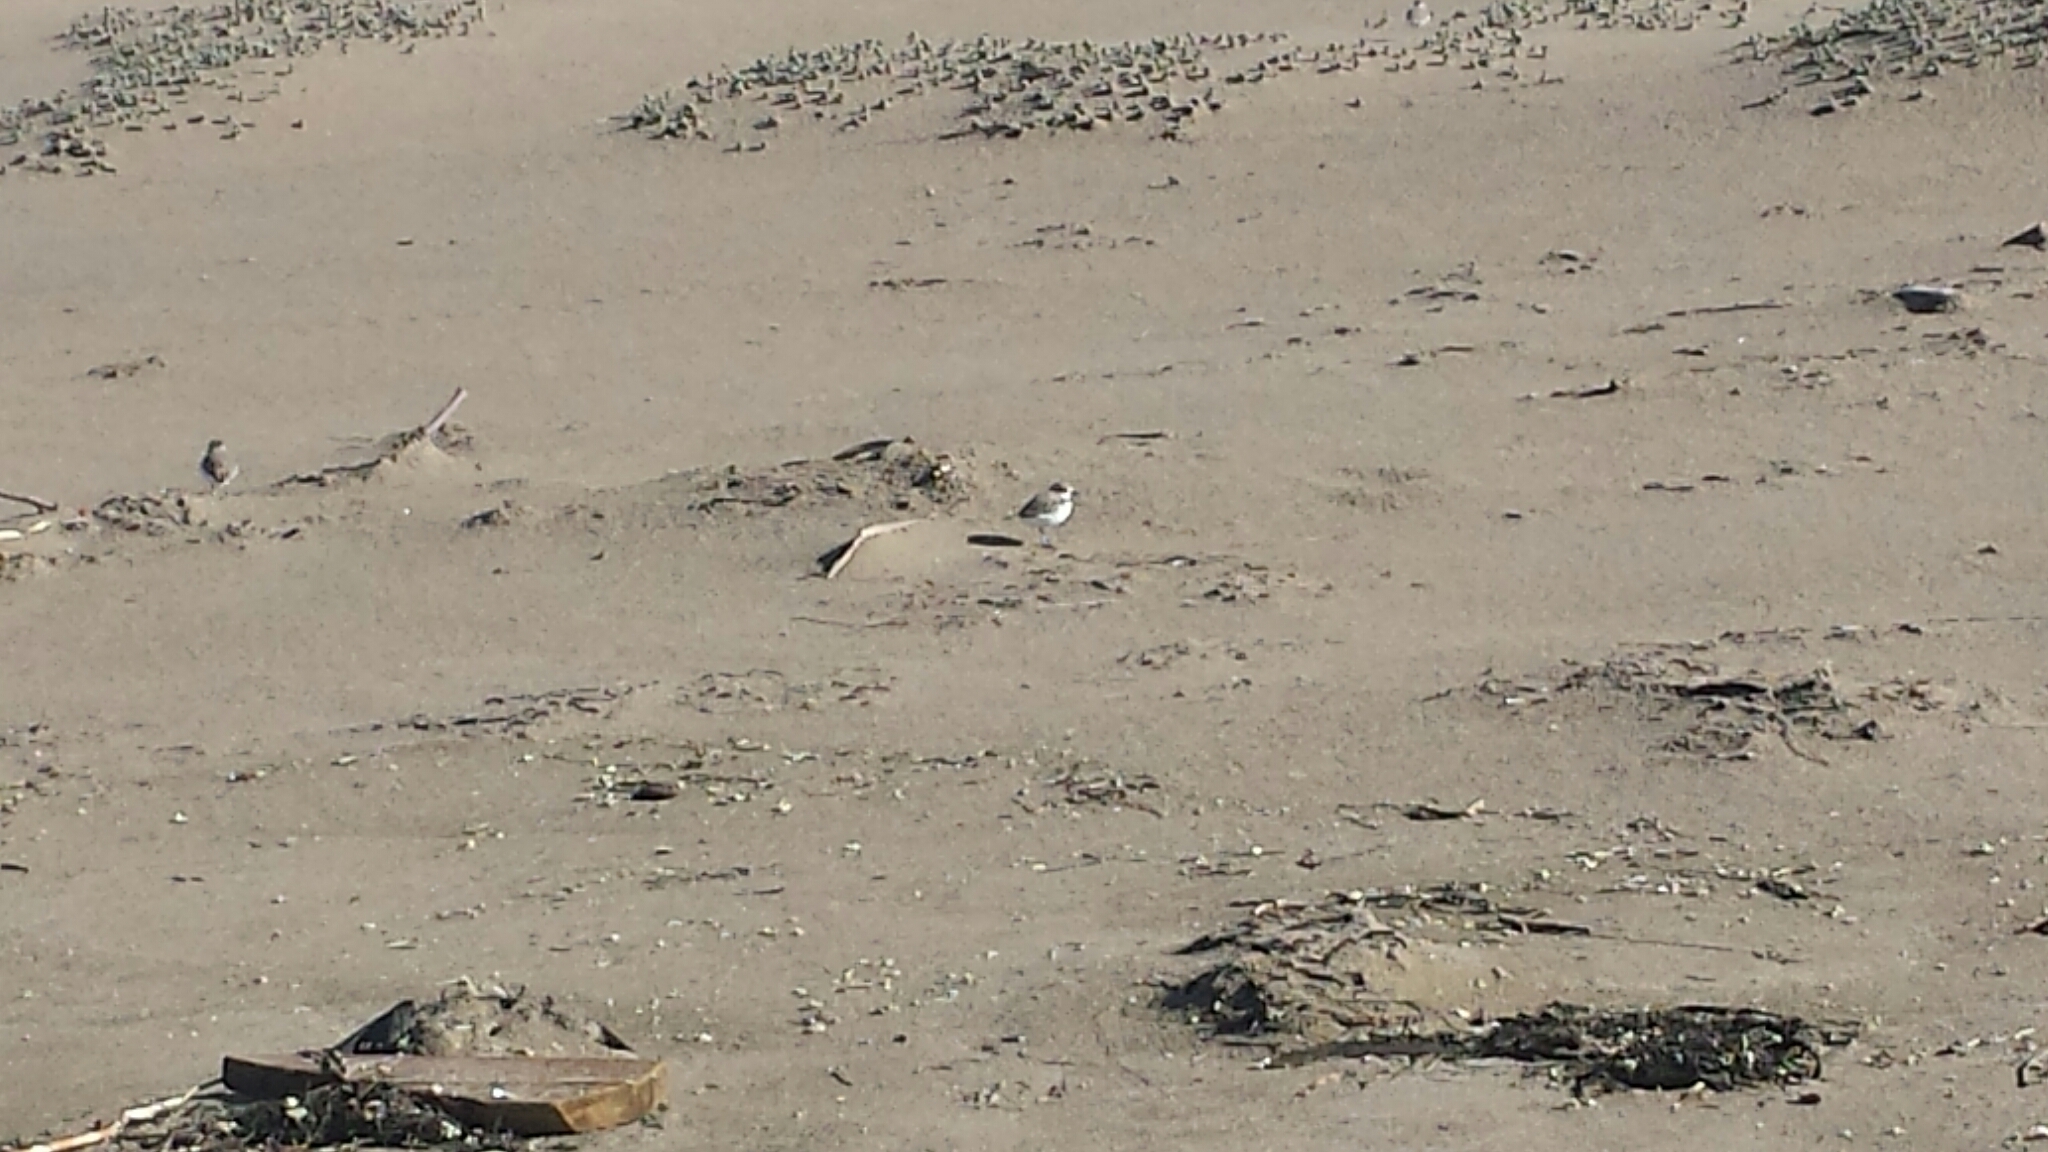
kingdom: Animalia
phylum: Chordata
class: Aves
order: Charadriiformes
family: Charadriidae
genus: Anarhynchus
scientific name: Anarhynchus
